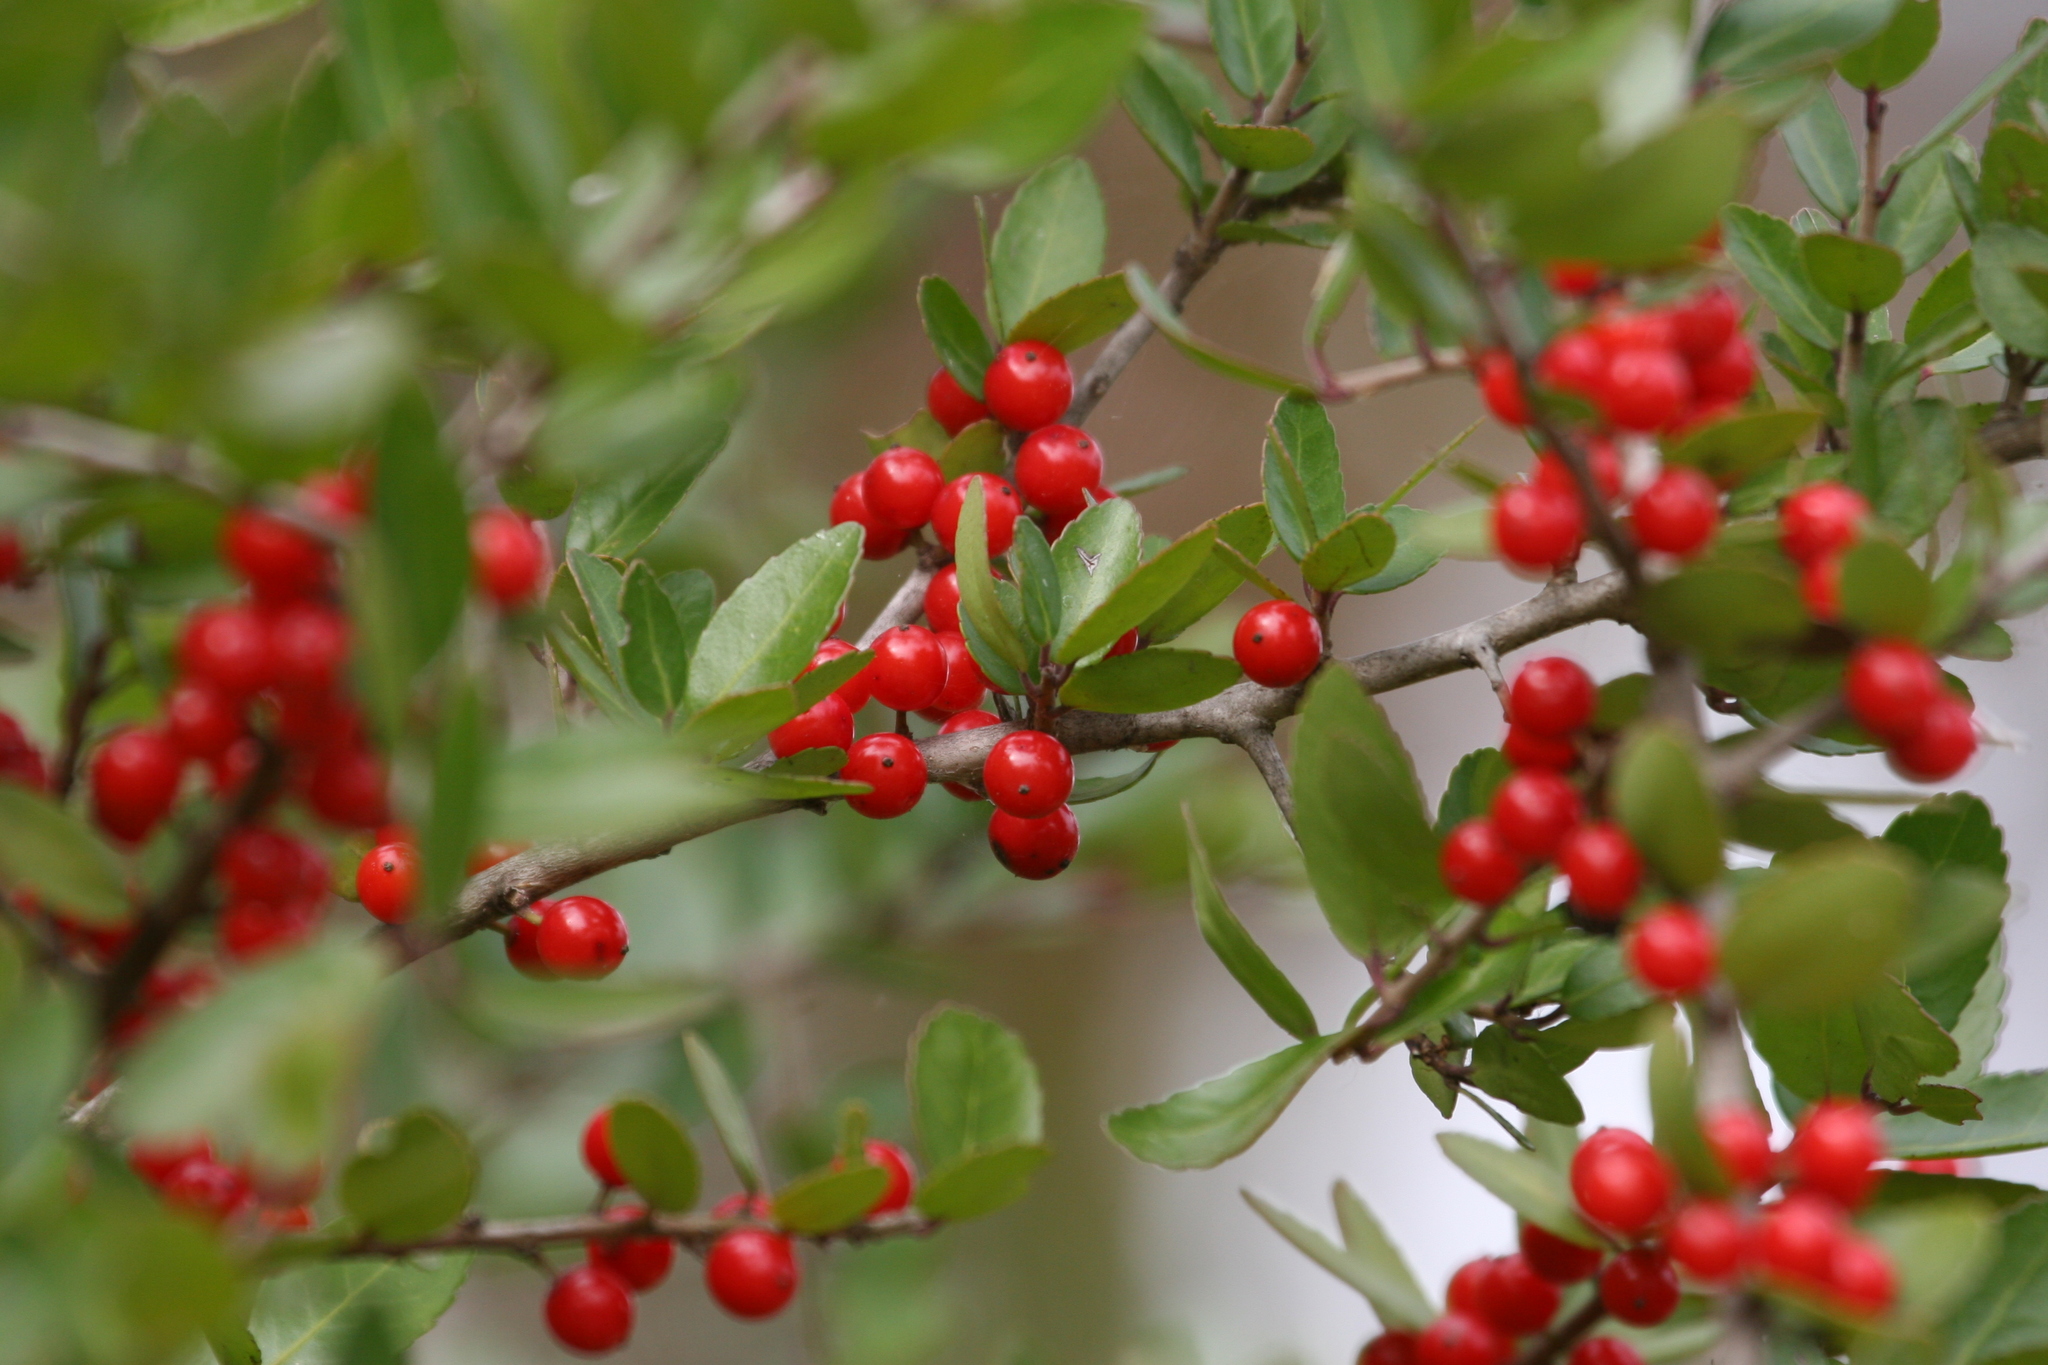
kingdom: Plantae
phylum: Tracheophyta
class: Magnoliopsida
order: Aquifoliales
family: Aquifoliaceae
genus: Ilex
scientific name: Ilex vomitoria
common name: Yaupon holly
